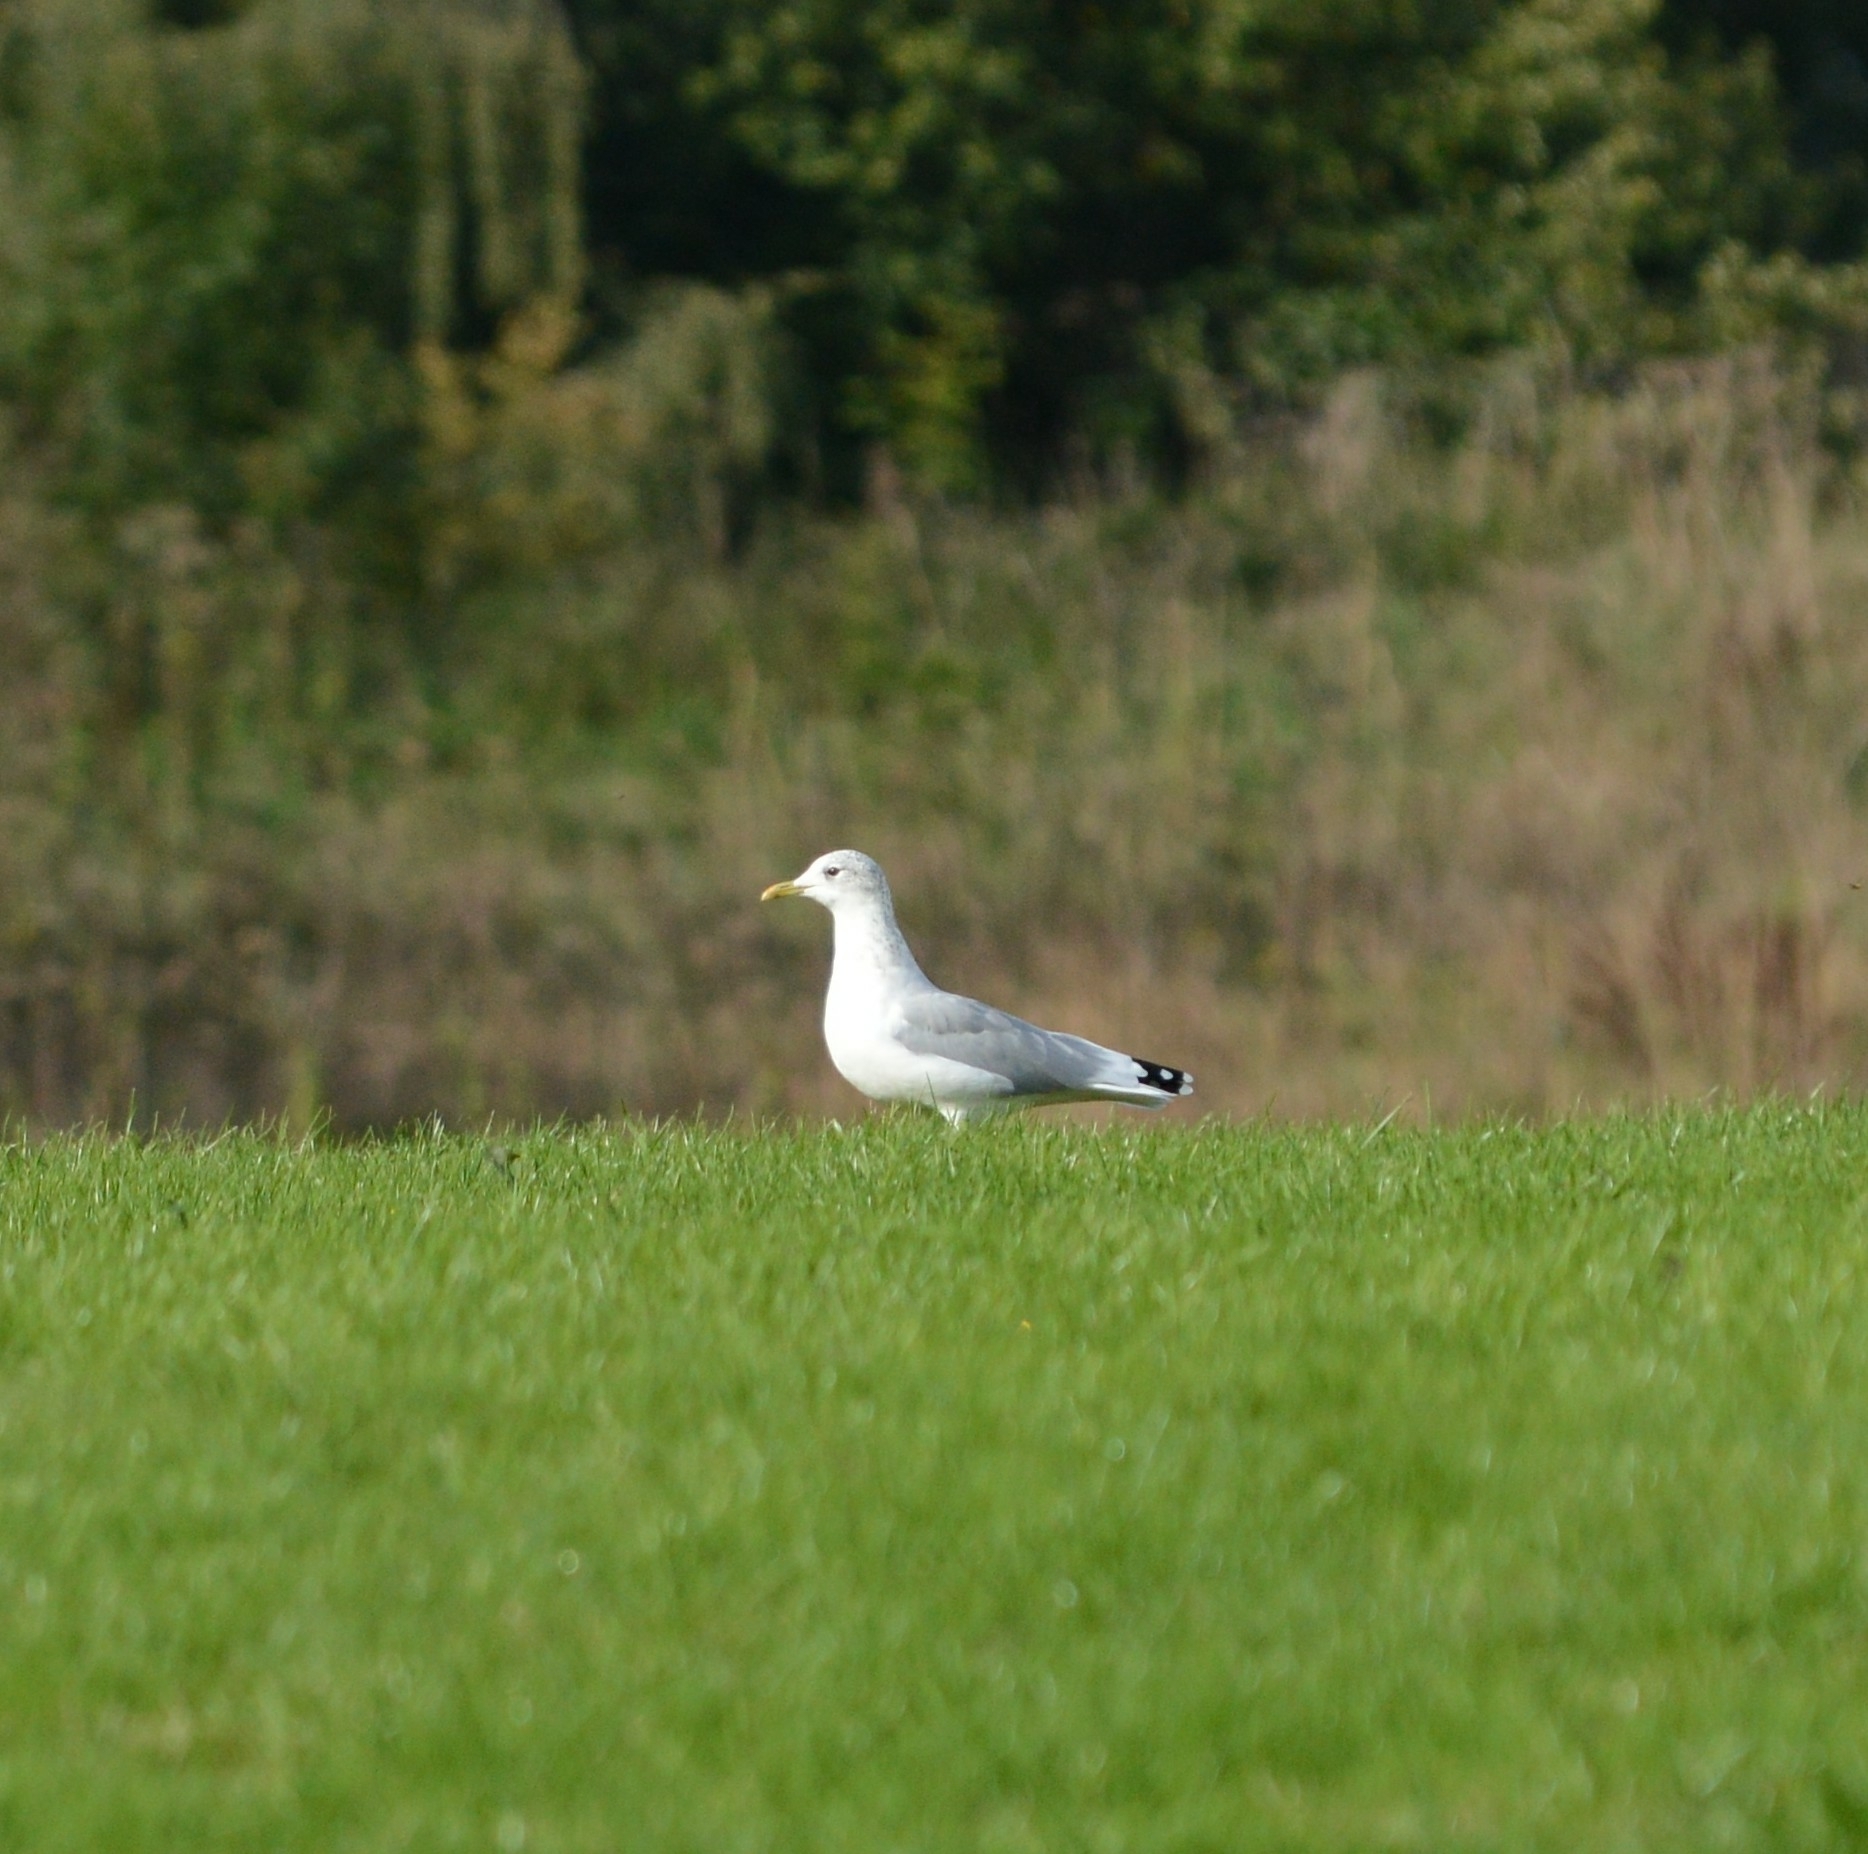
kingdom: Animalia
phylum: Chordata
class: Aves
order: Charadriiformes
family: Laridae
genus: Larus
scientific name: Larus canus
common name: Mew gull
